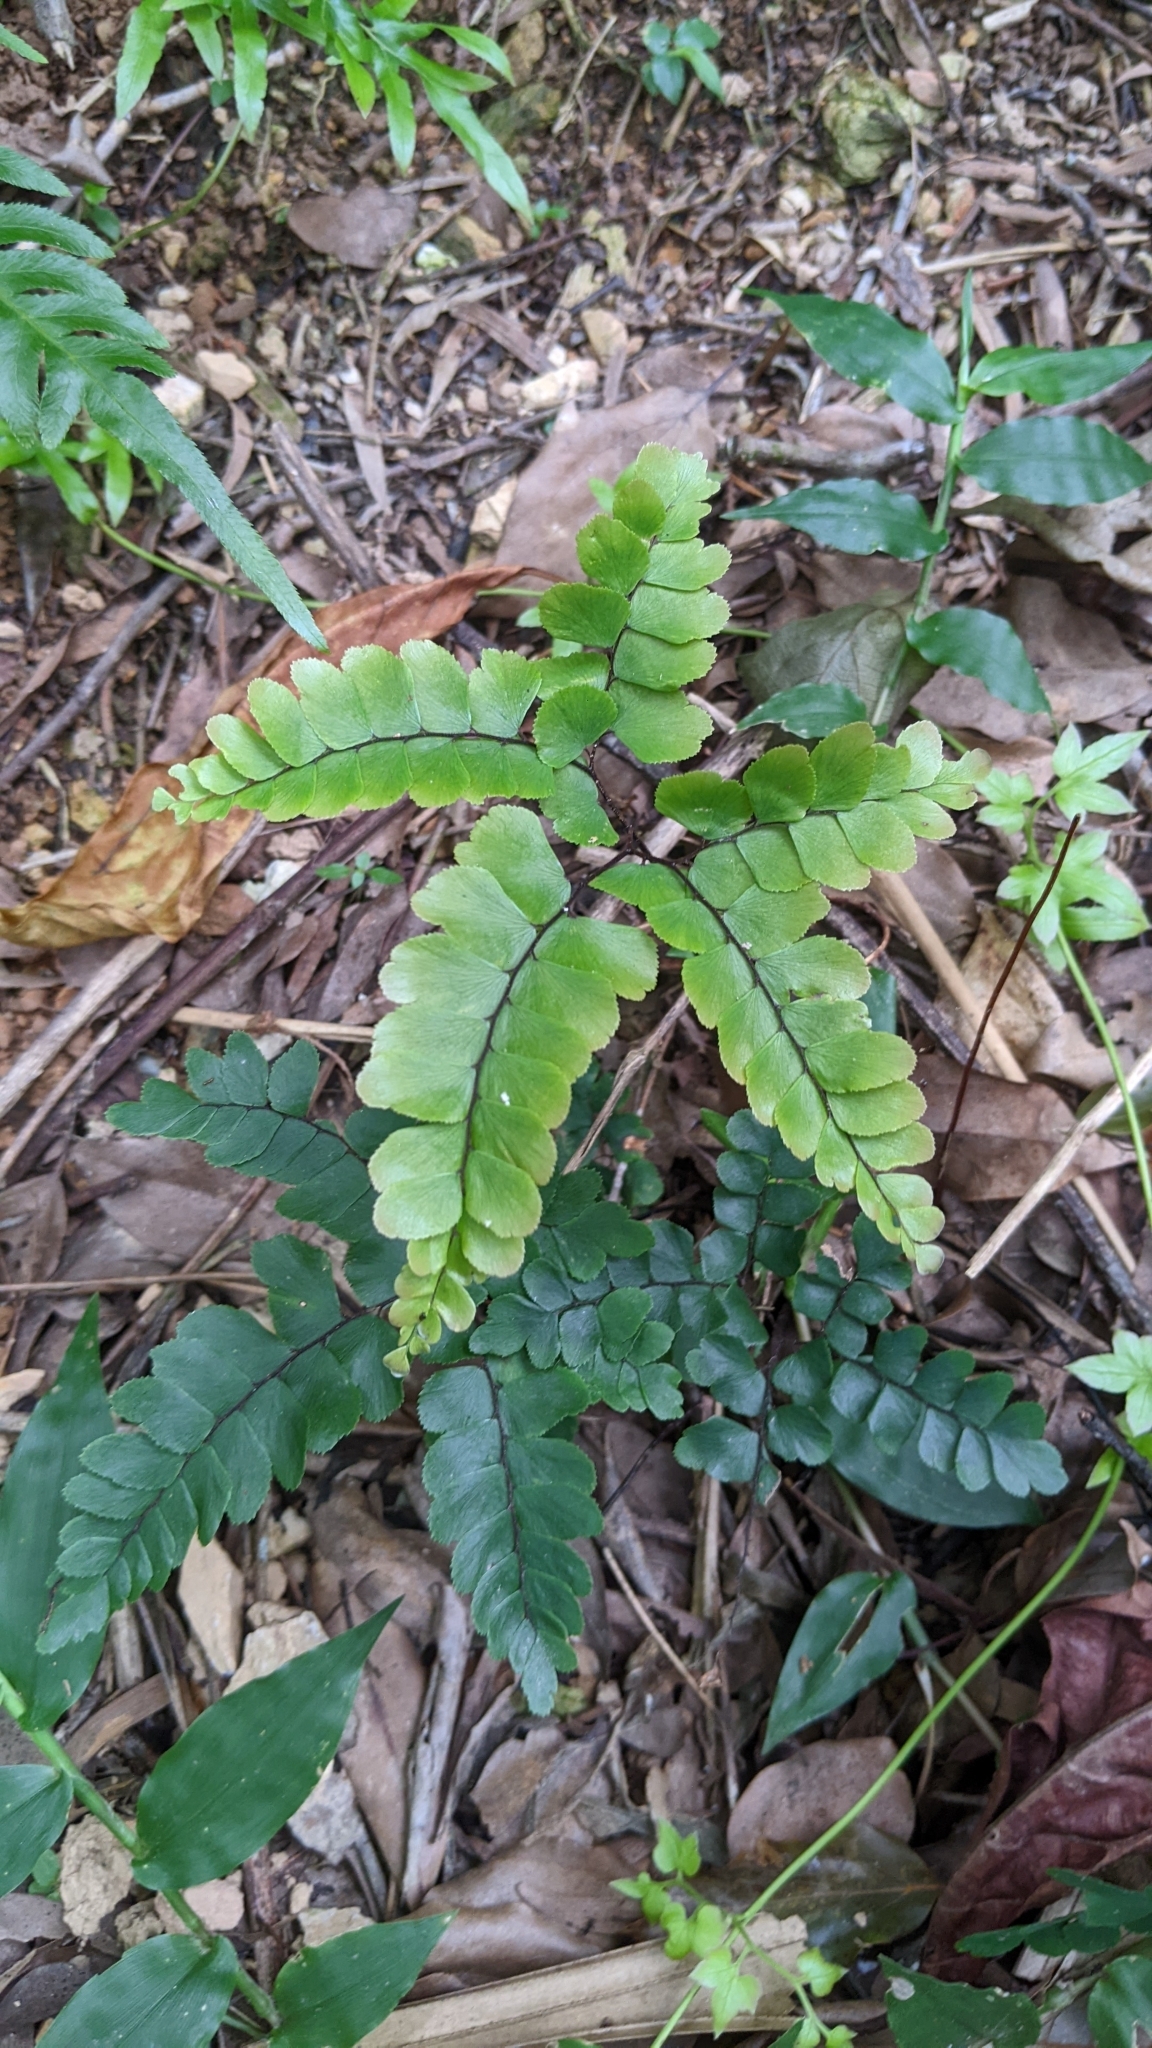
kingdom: Plantae
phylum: Tracheophyta
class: Polypodiopsida
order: Polypodiales
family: Pteridaceae
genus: Adiantum
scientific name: Adiantum flabellulatum
